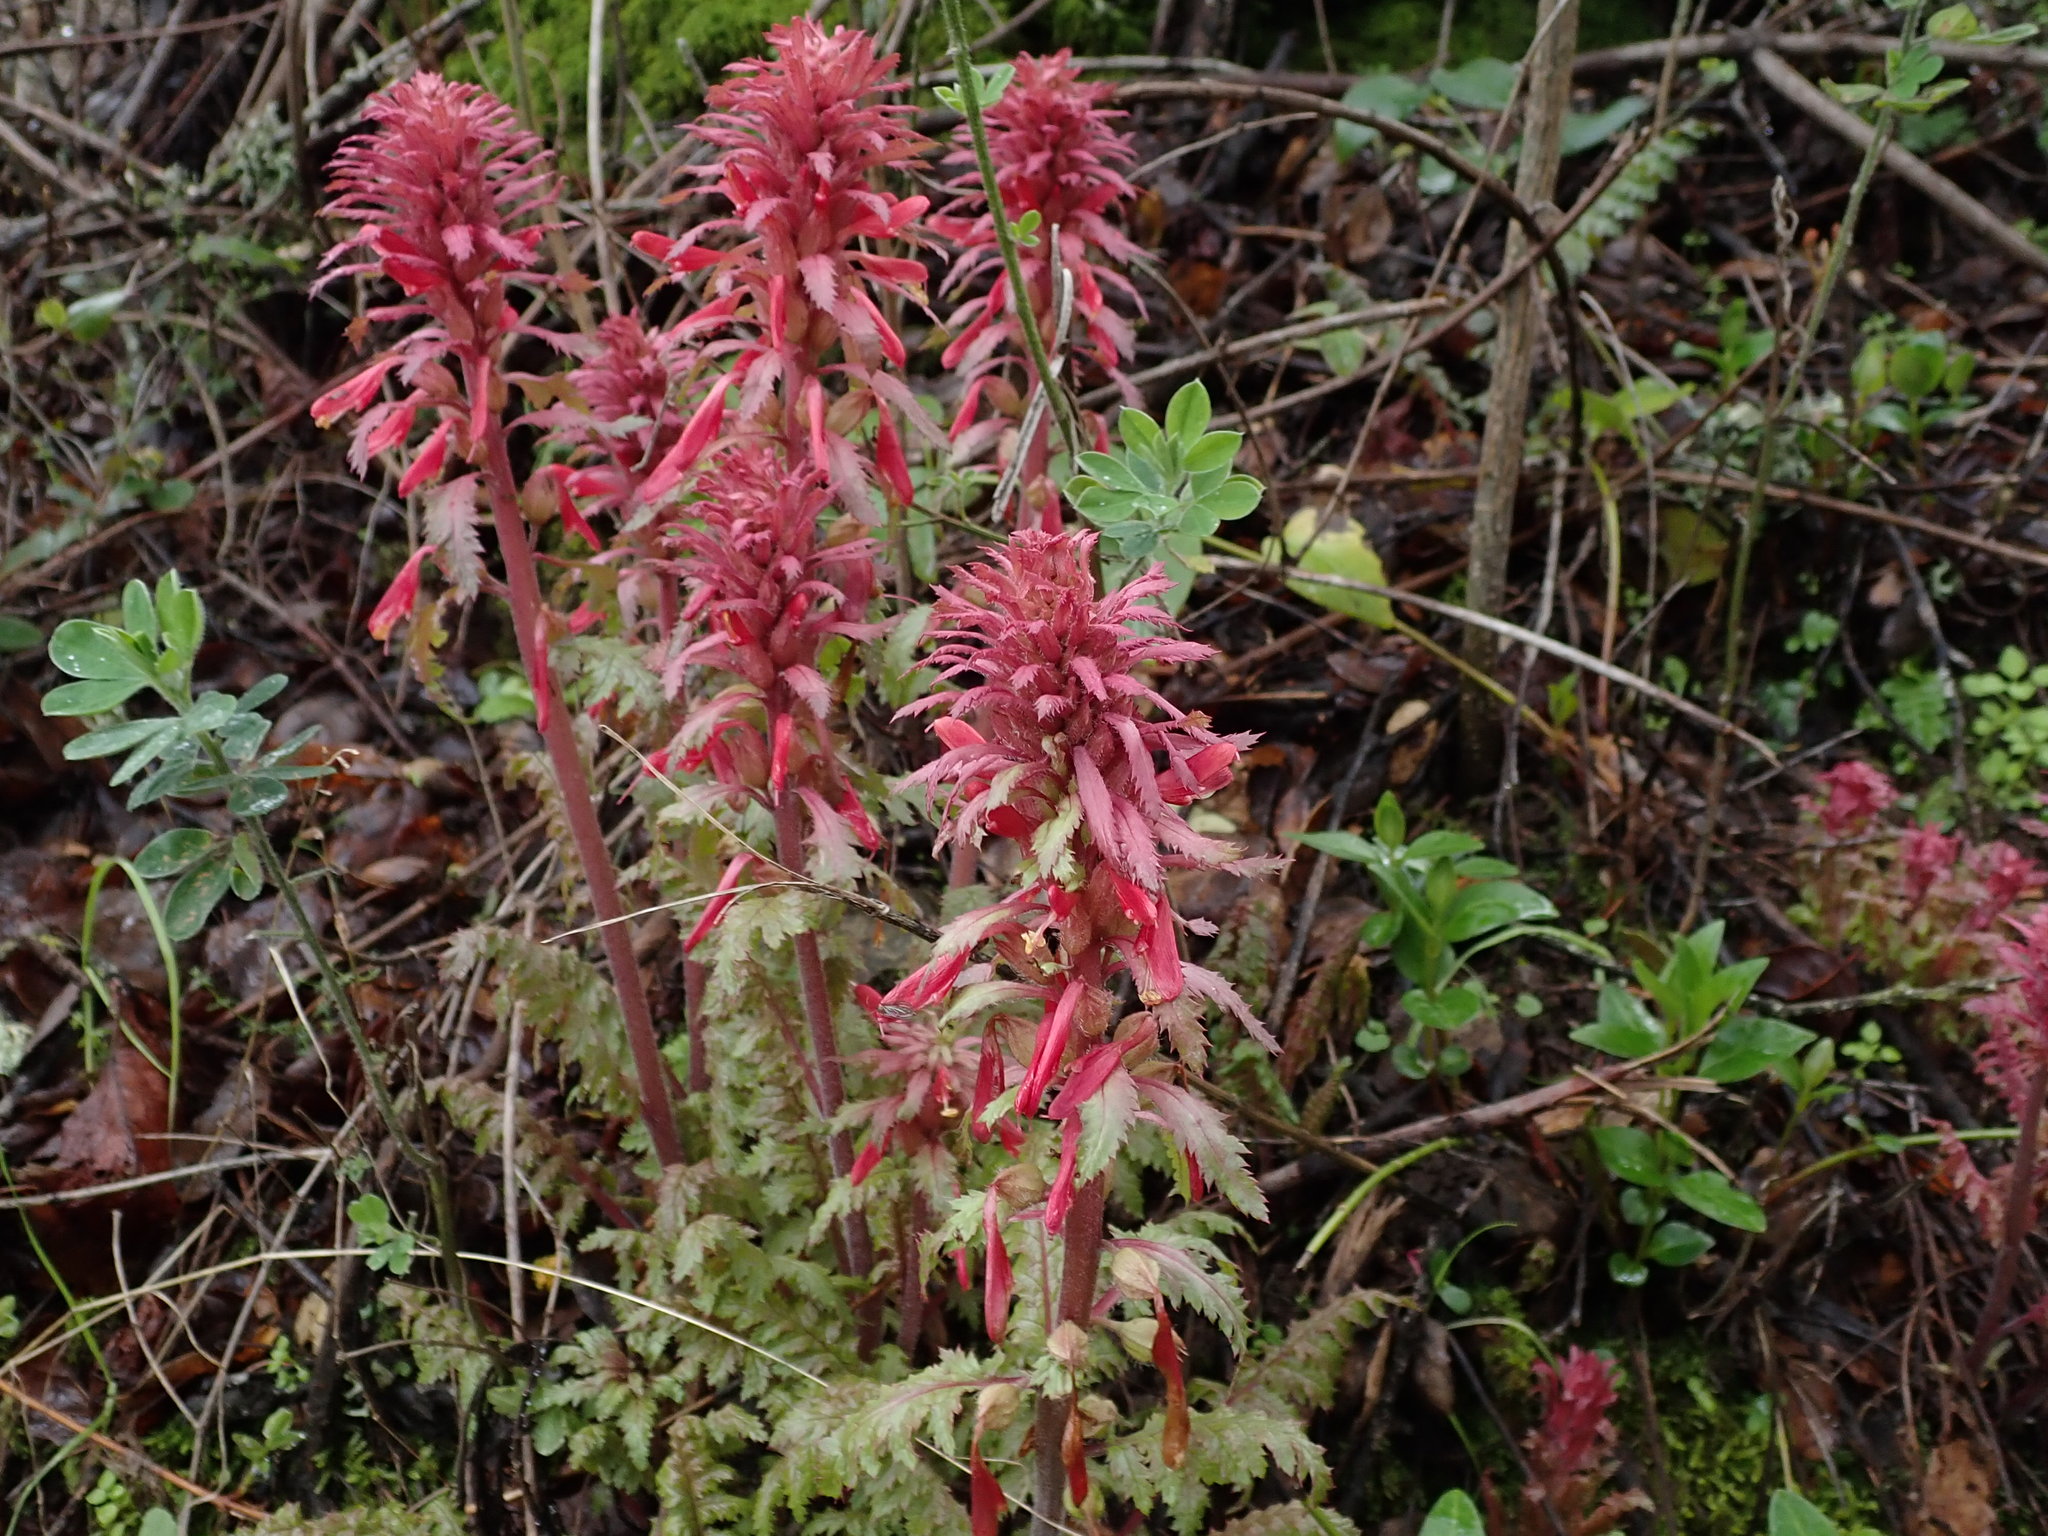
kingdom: Plantae
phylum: Tracheophyta
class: Magnoliopsida
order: Lamiales
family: Orobanchaceae
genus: Pedicularis
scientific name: Pedicularis densiflora
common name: Indian warrior
